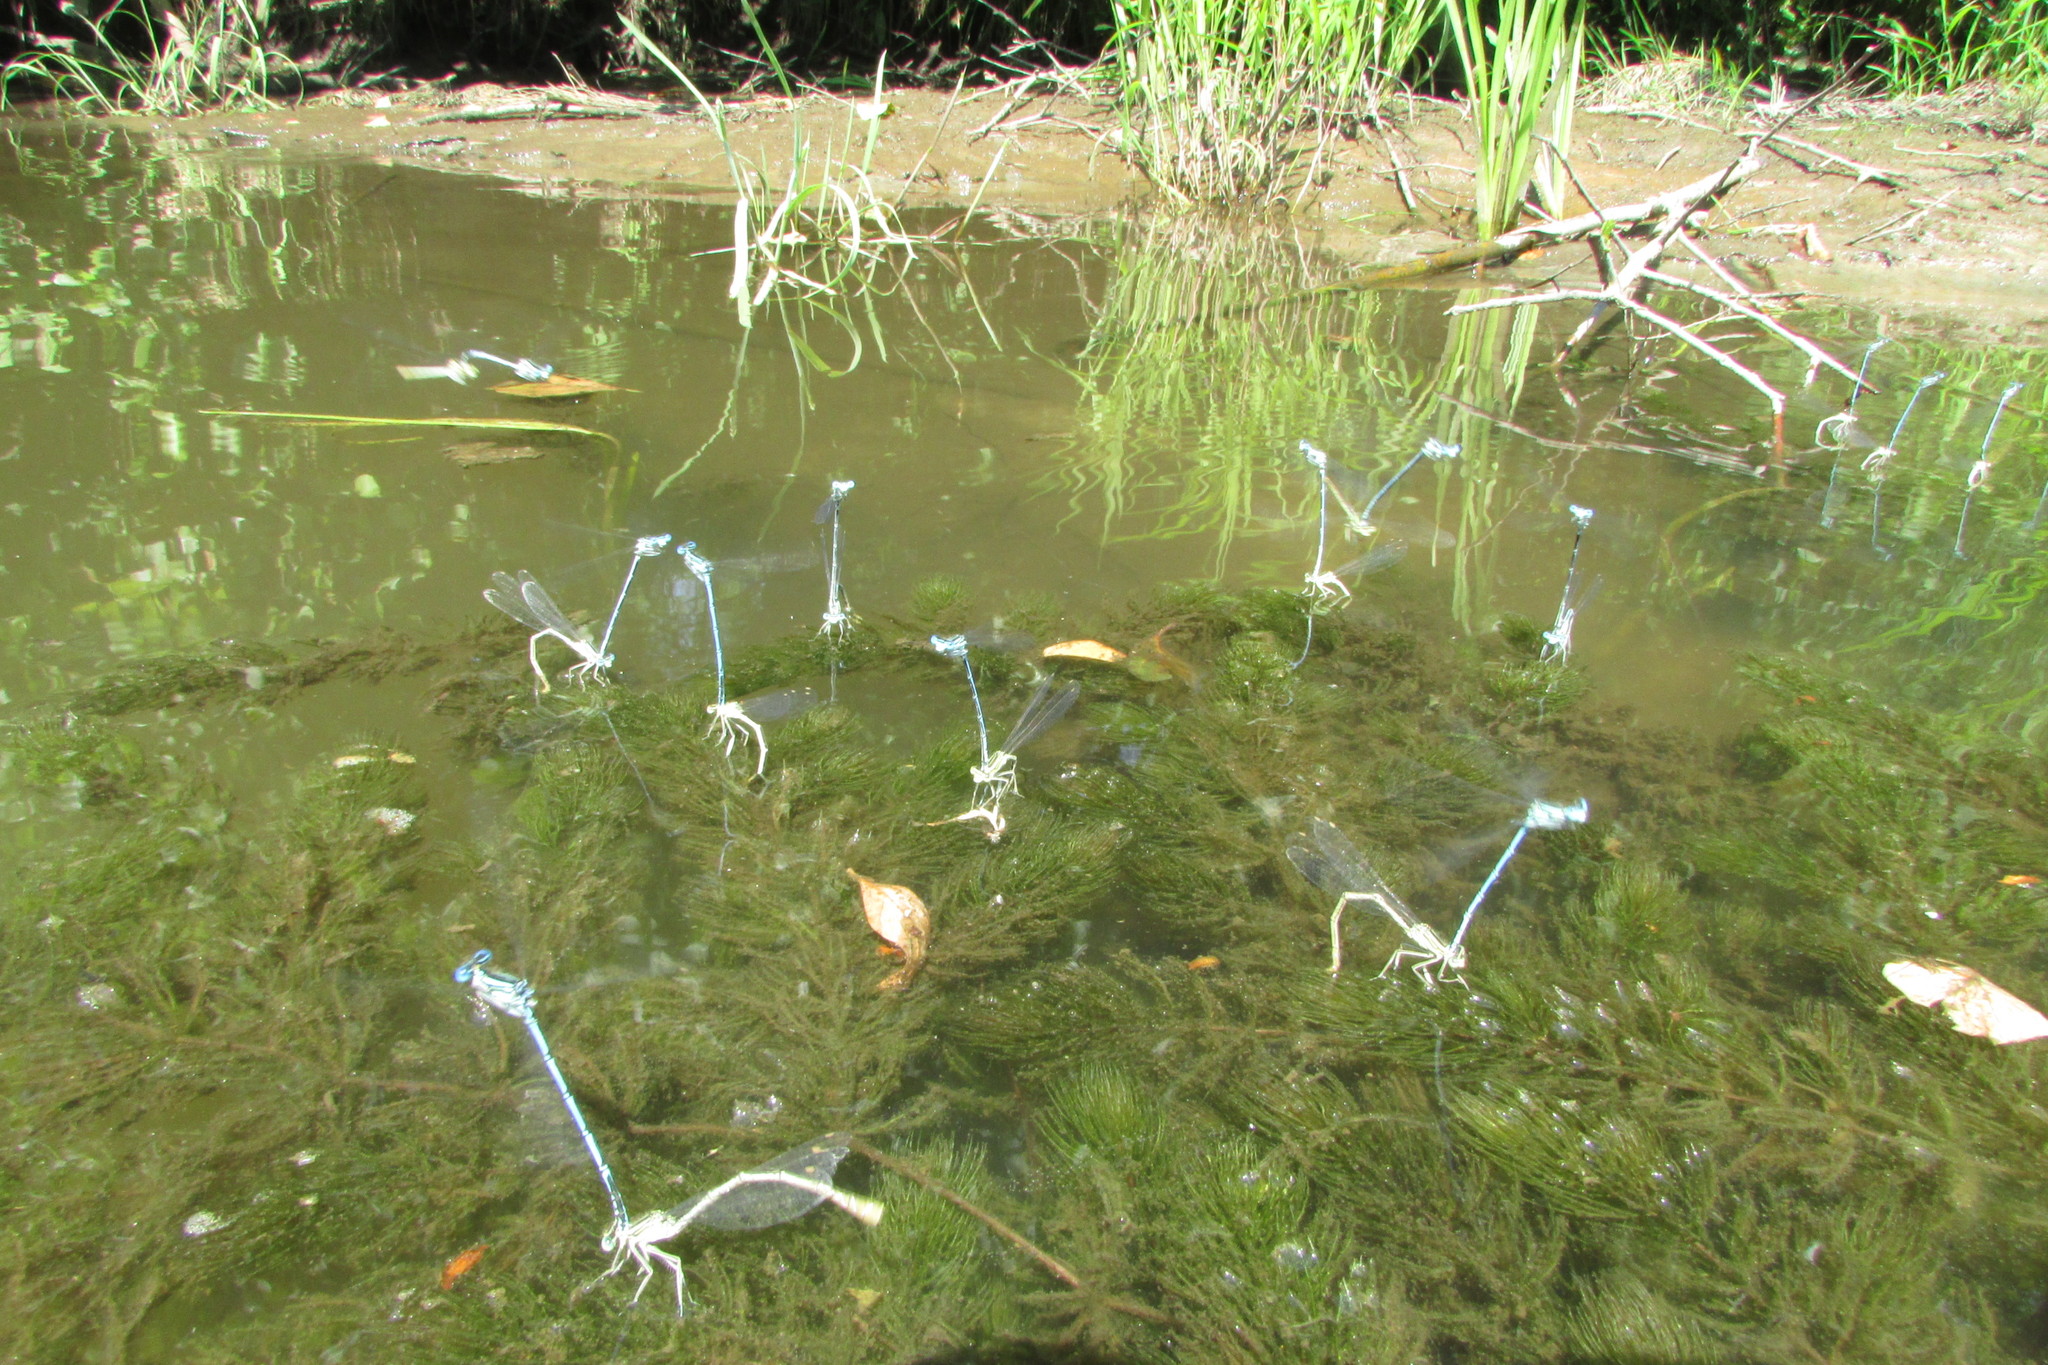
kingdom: Animalia
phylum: Arthropoda
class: Insecta
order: Odonata
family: Platycnemididae
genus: Platycnemis
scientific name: Platycnemis pennipes
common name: White-legged damselfly
